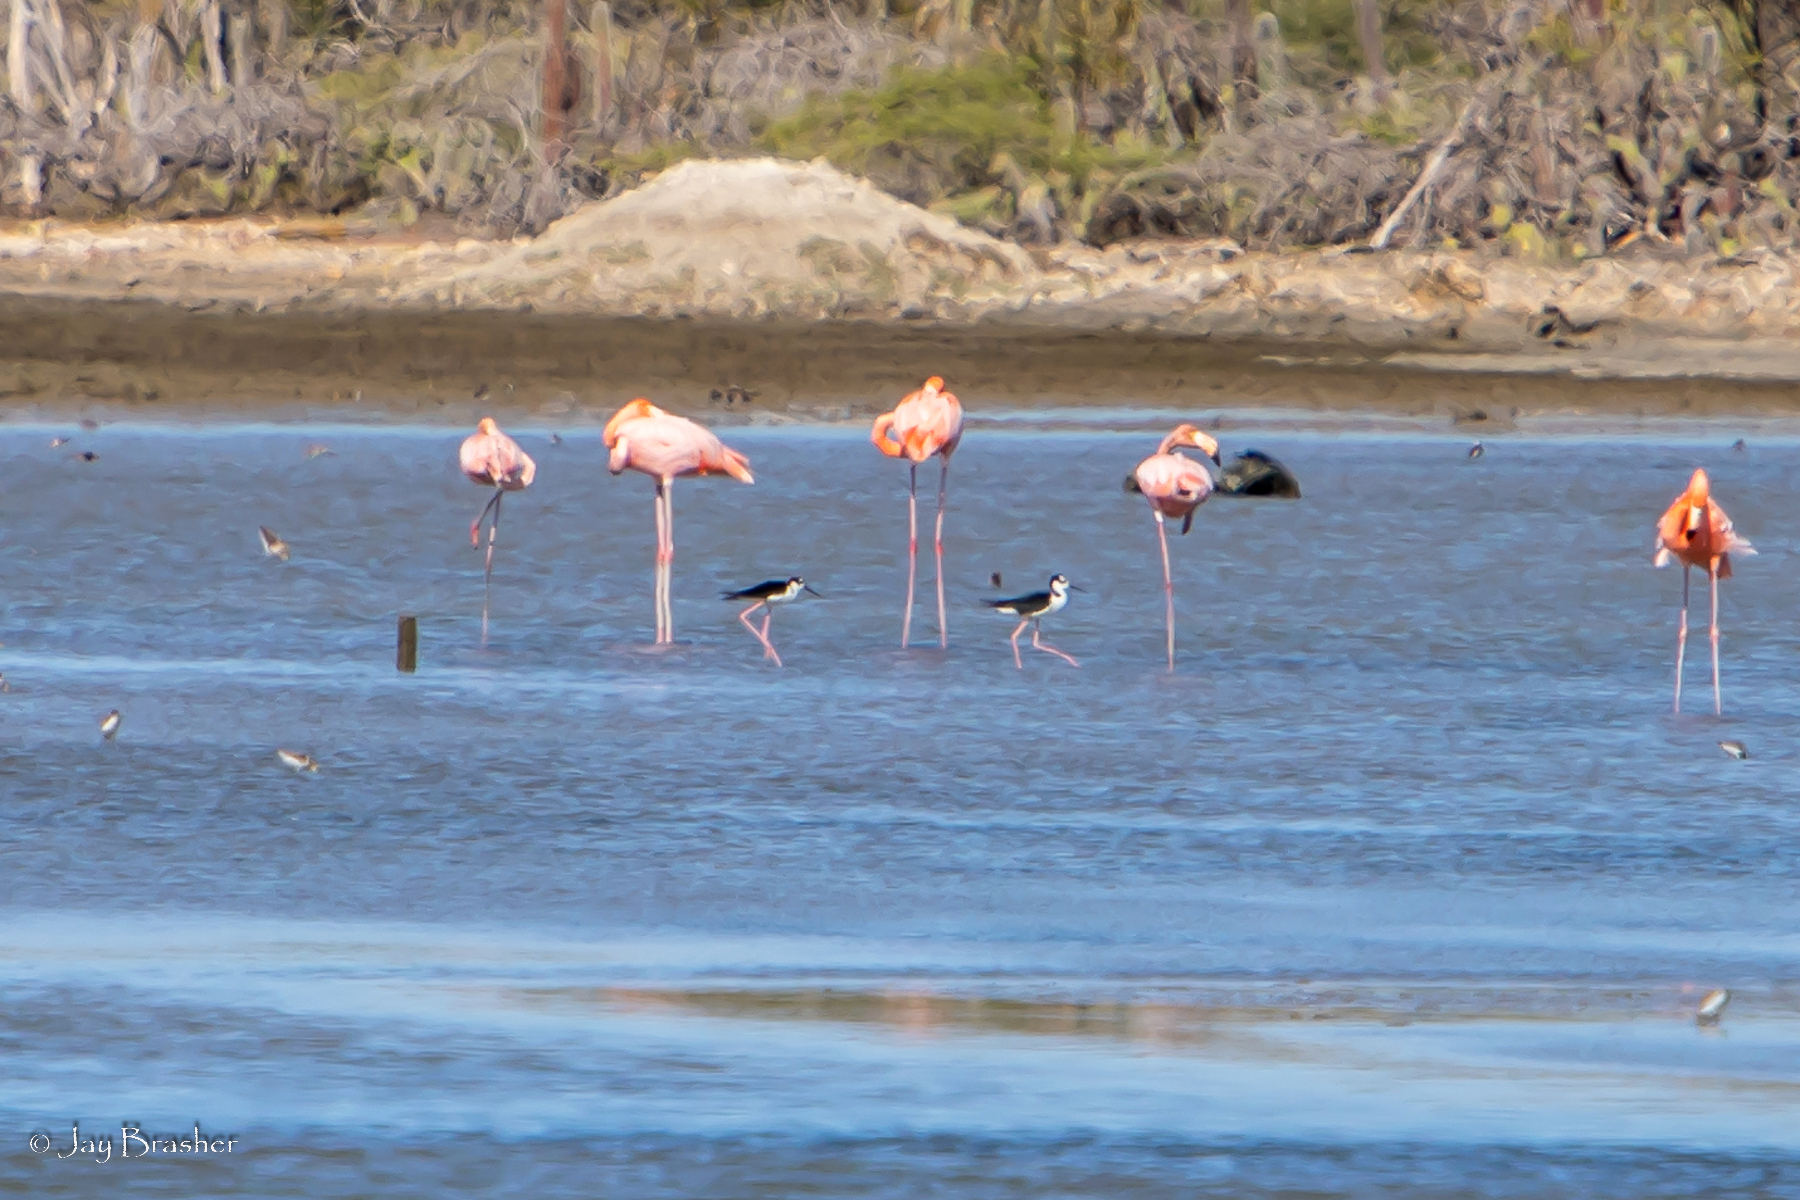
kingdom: Animalia
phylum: Chordata
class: Aves
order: Charadriiformes
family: Recurvirostridae
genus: Himantopus
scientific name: Himantopus mexicanus
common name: Black-necked stilt
